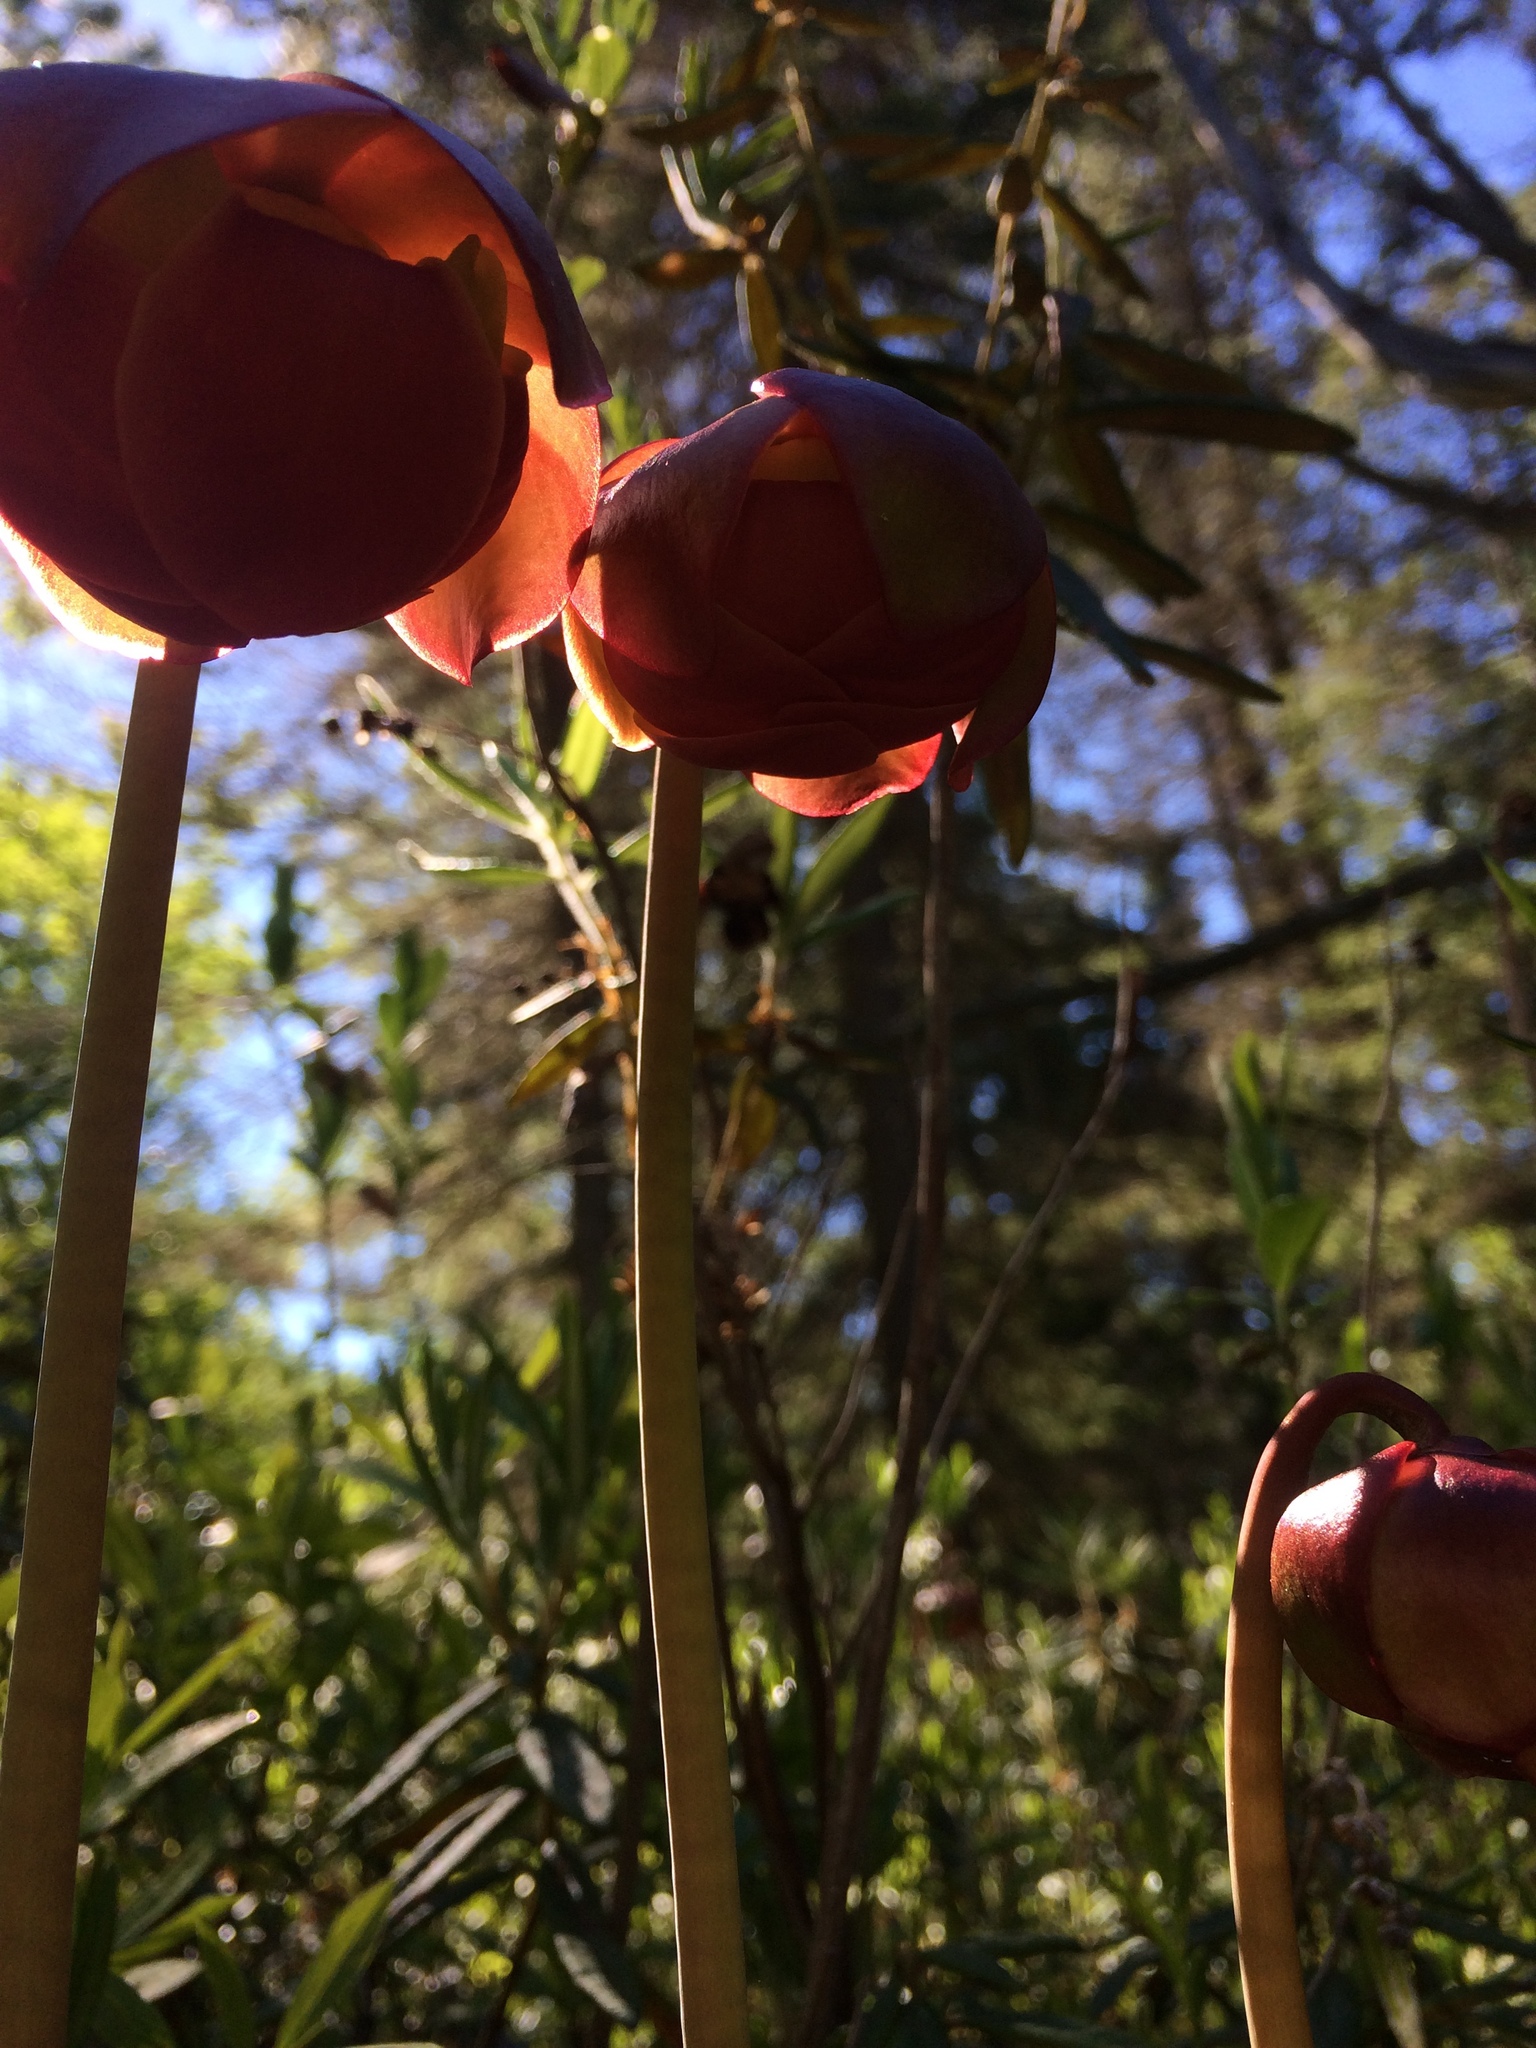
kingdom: Plantae
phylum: Tracheophyta
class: Magnoliopsida
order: Ericales
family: Sarraceniaceae
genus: Sarracenia
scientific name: Sarracenia purpurea
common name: Pitcherplant
